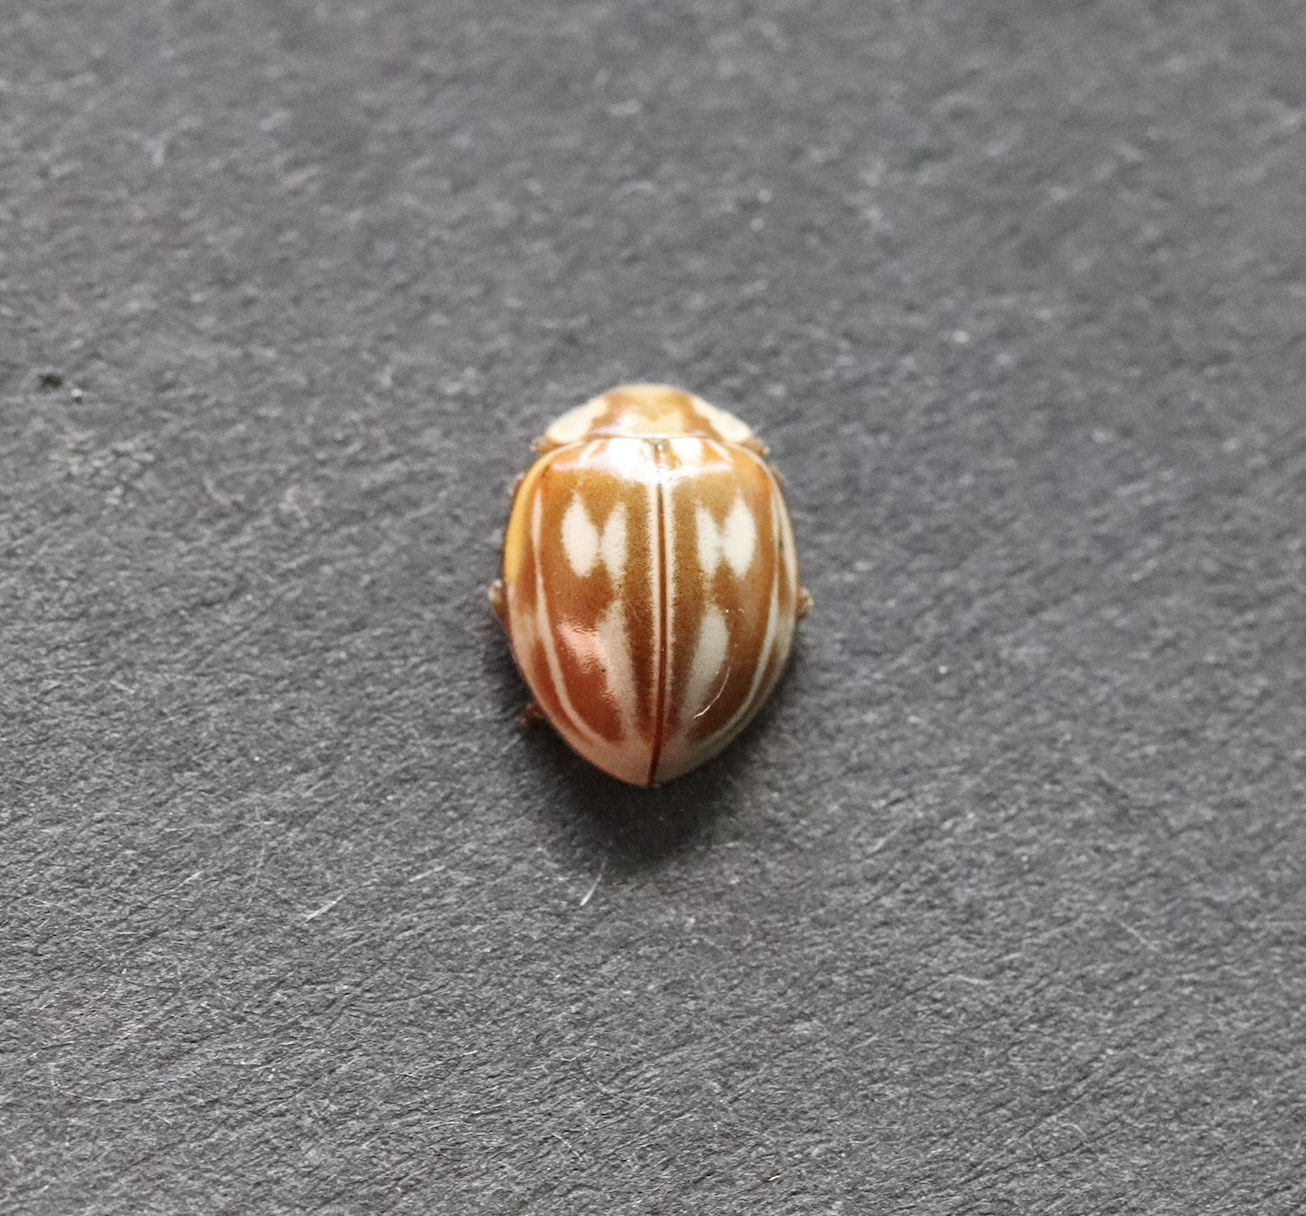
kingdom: Animalia
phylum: Arthropoda
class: Insecta
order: Coleoptera
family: Coccinellidae
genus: Myzia
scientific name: Myzia oblongoguttata
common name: Striped ladybird
